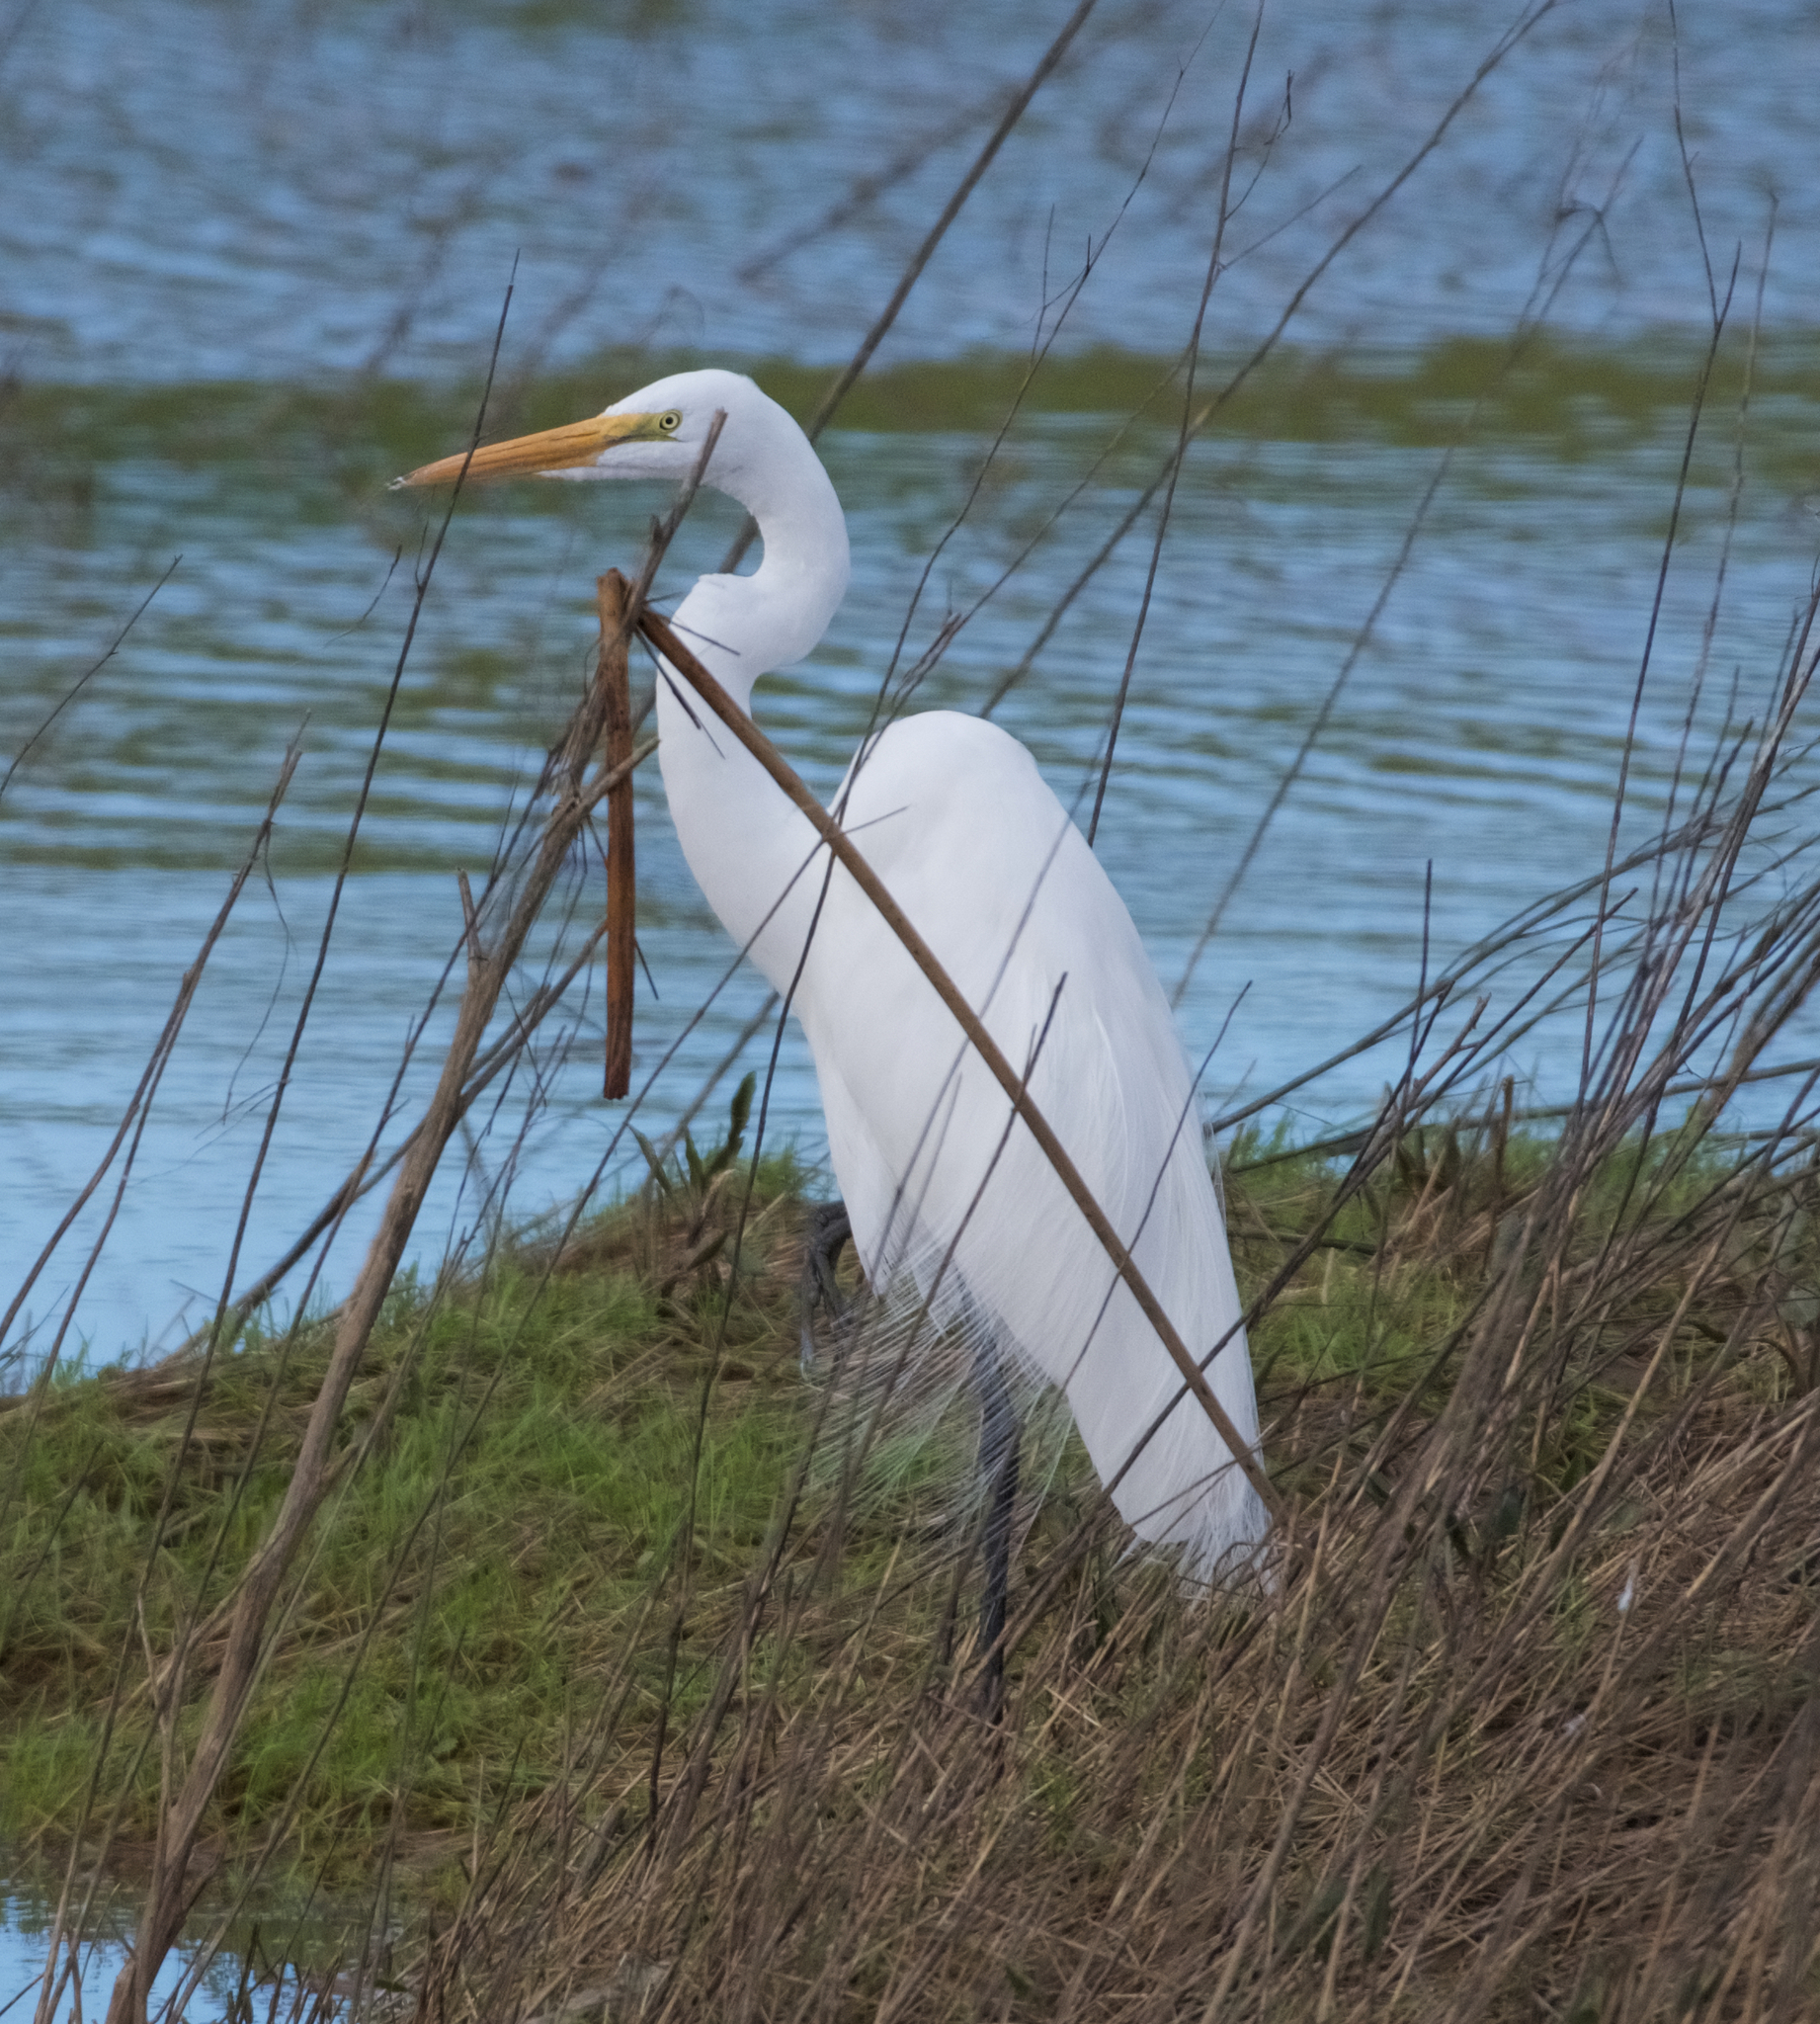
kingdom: Animalia
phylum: Chordata
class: Aves
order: Pelecaniformes
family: Ardeidae
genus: Ardea
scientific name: Ardea alba
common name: Great egret
